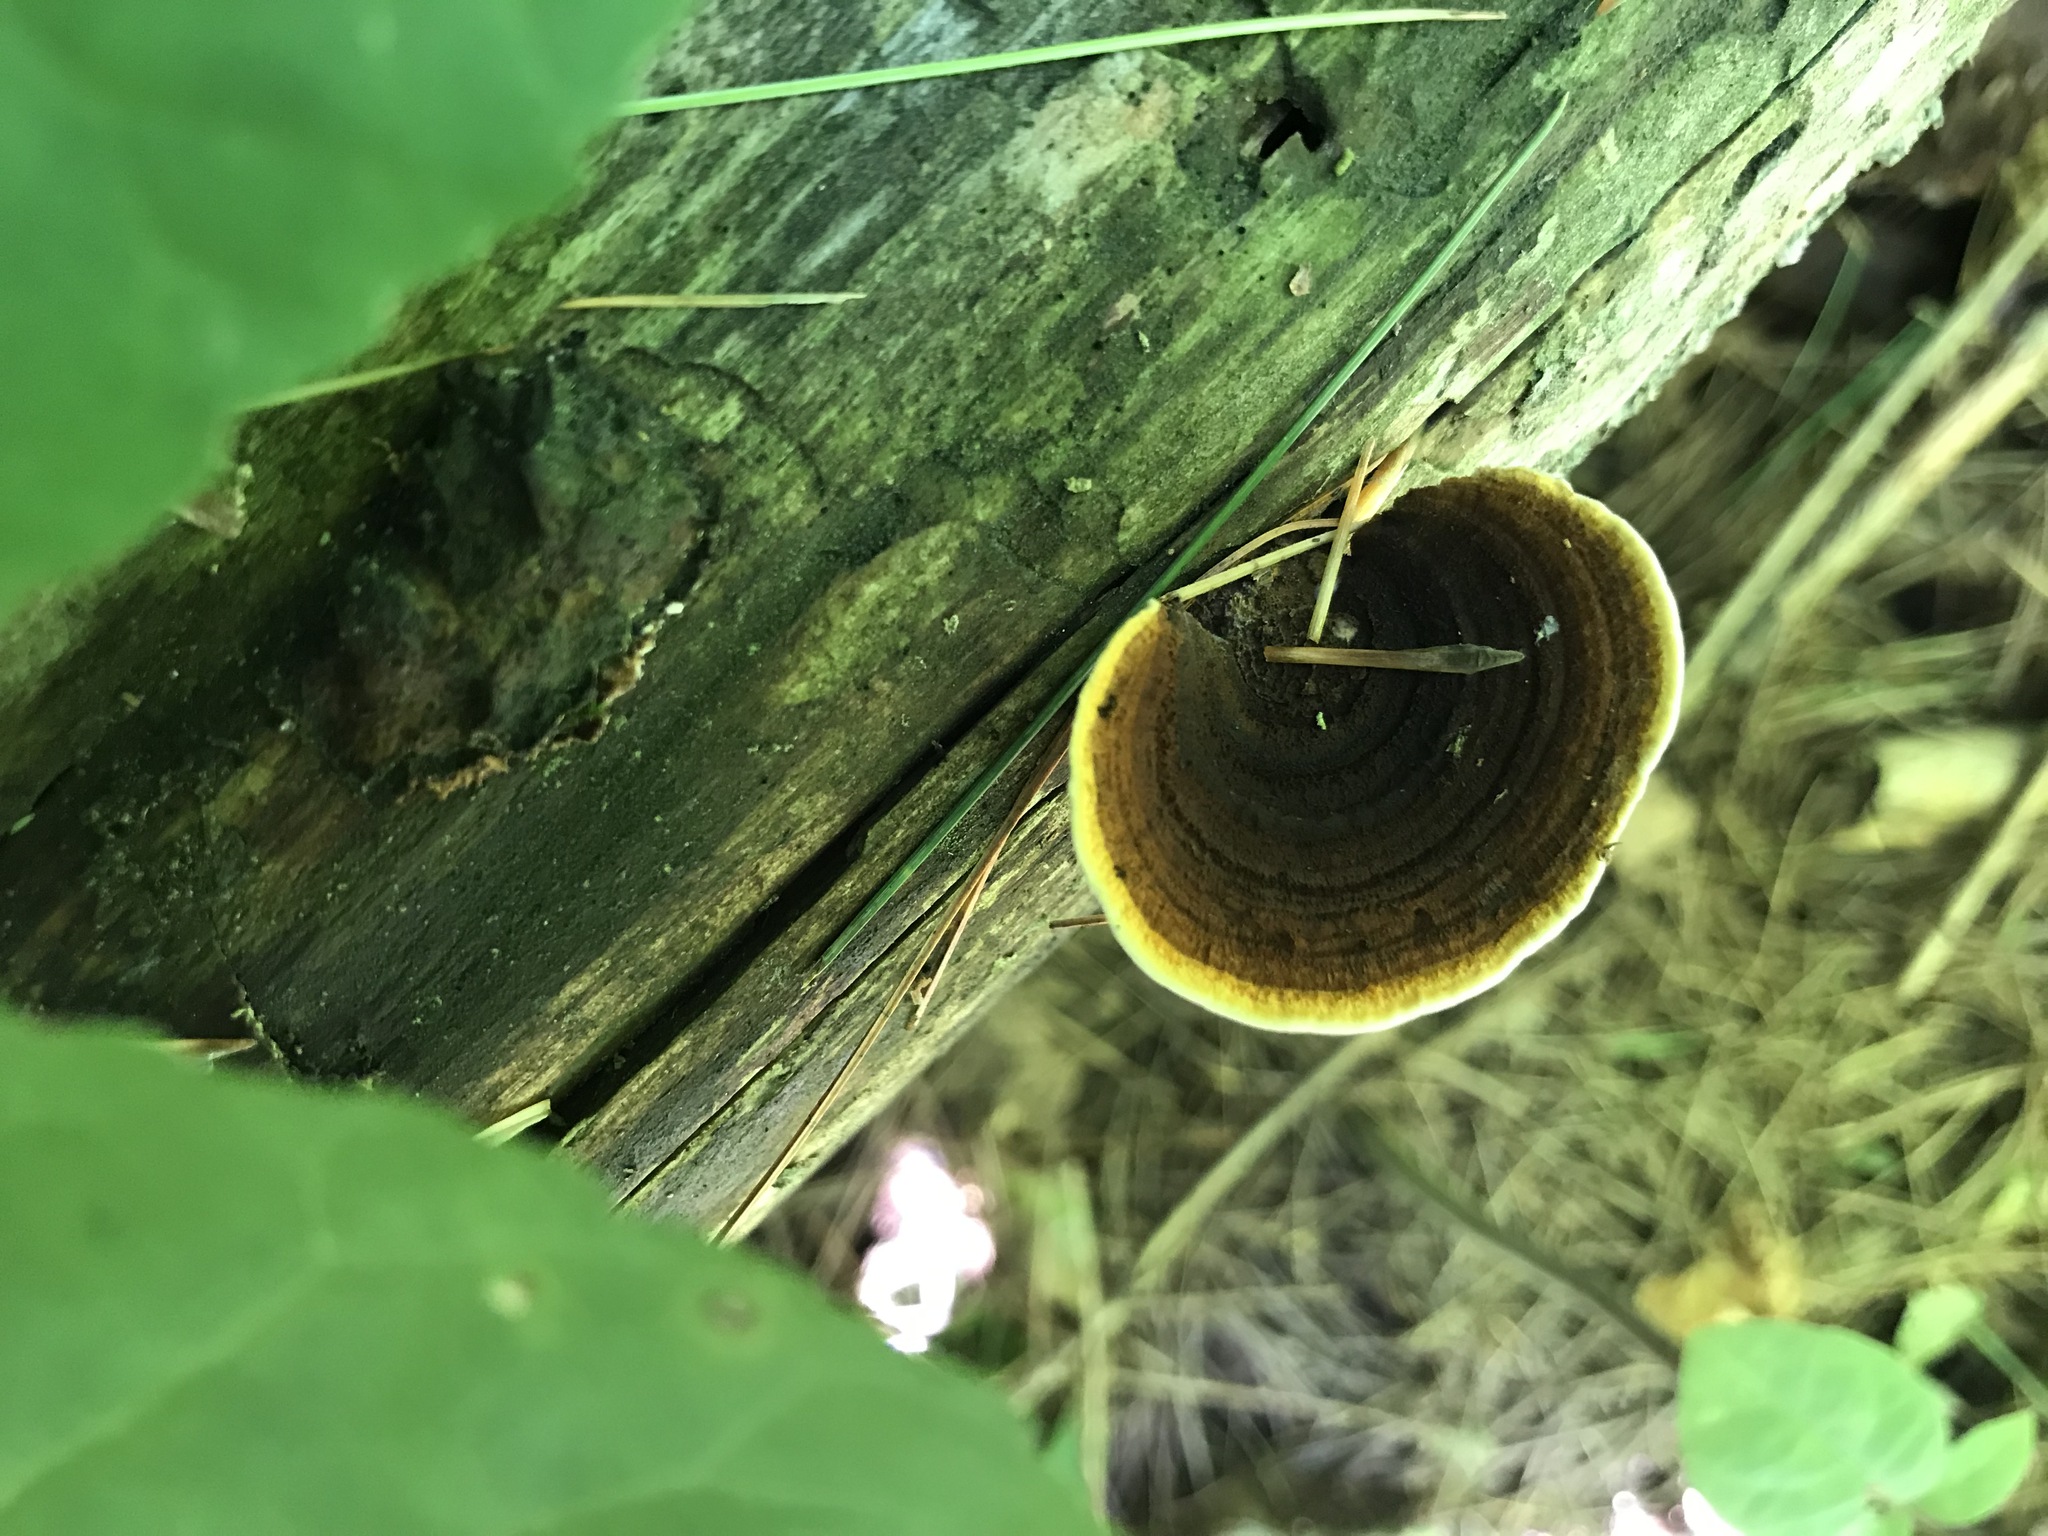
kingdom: Fungi
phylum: Basidiomycota
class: Agaricomycetes
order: Gloeophyllales
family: Gloeophyllaceae
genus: Gloeophyllum
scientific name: Gloeophyllum sepiarium
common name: Conifer mazegill
